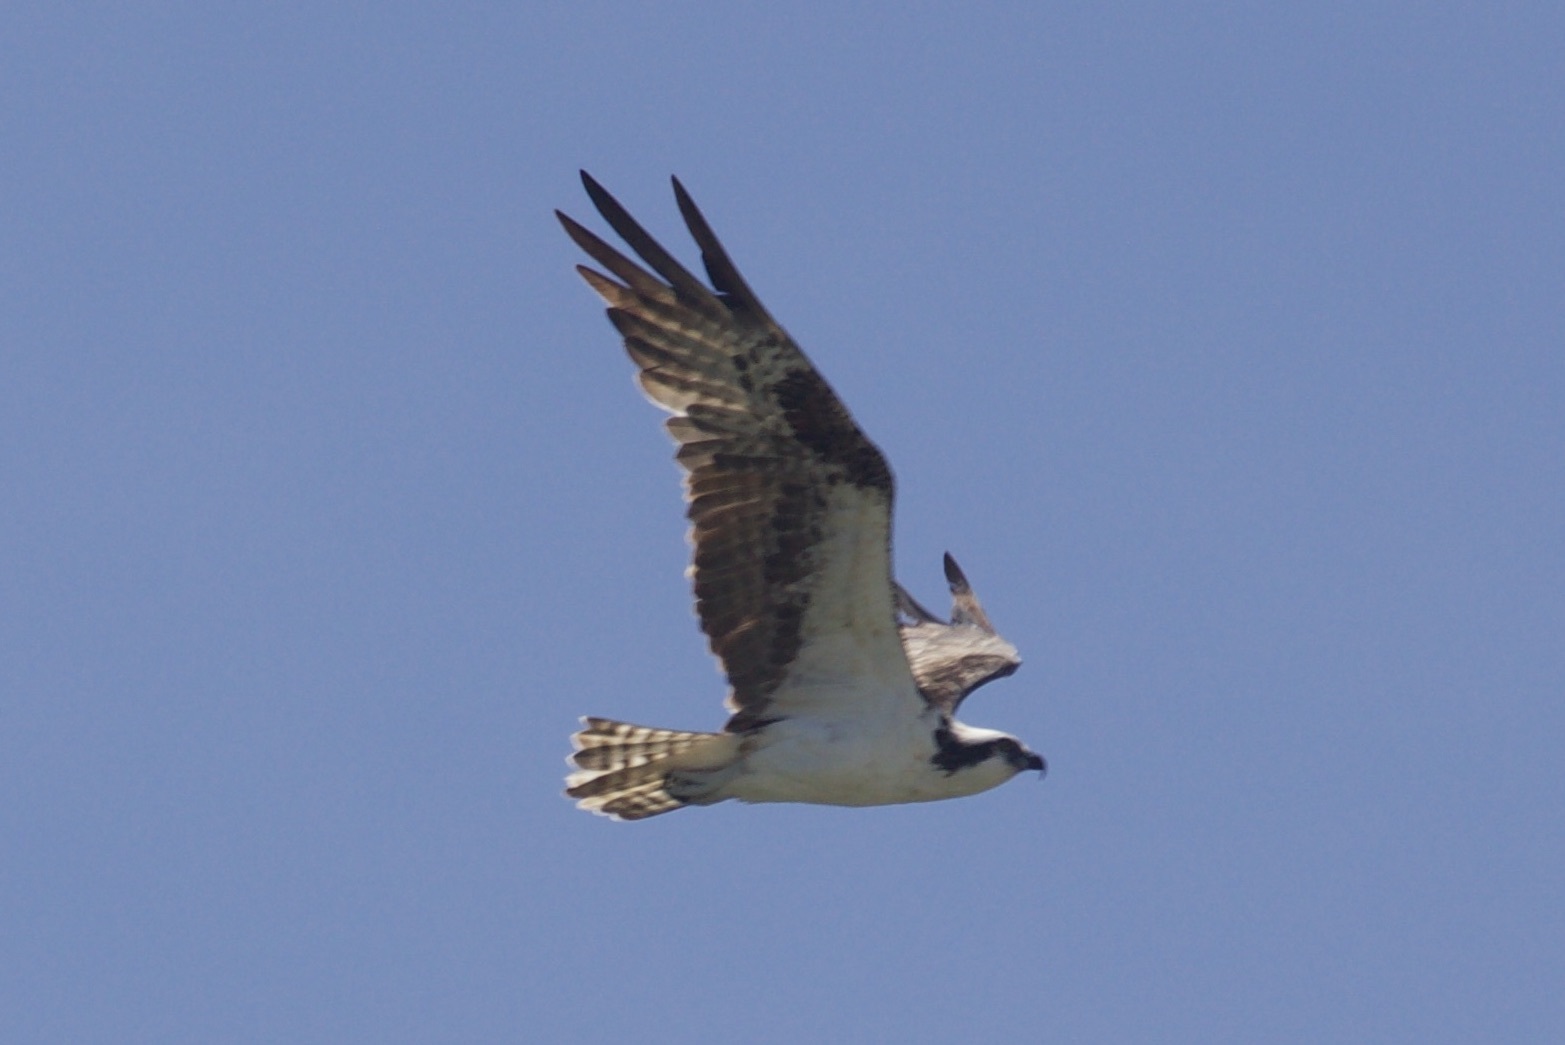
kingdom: Animalia
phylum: Chordata
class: Aves
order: Accipitriformes
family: Pandionidae
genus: Pandion
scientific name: Pandion haliaetus
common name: Osprey
